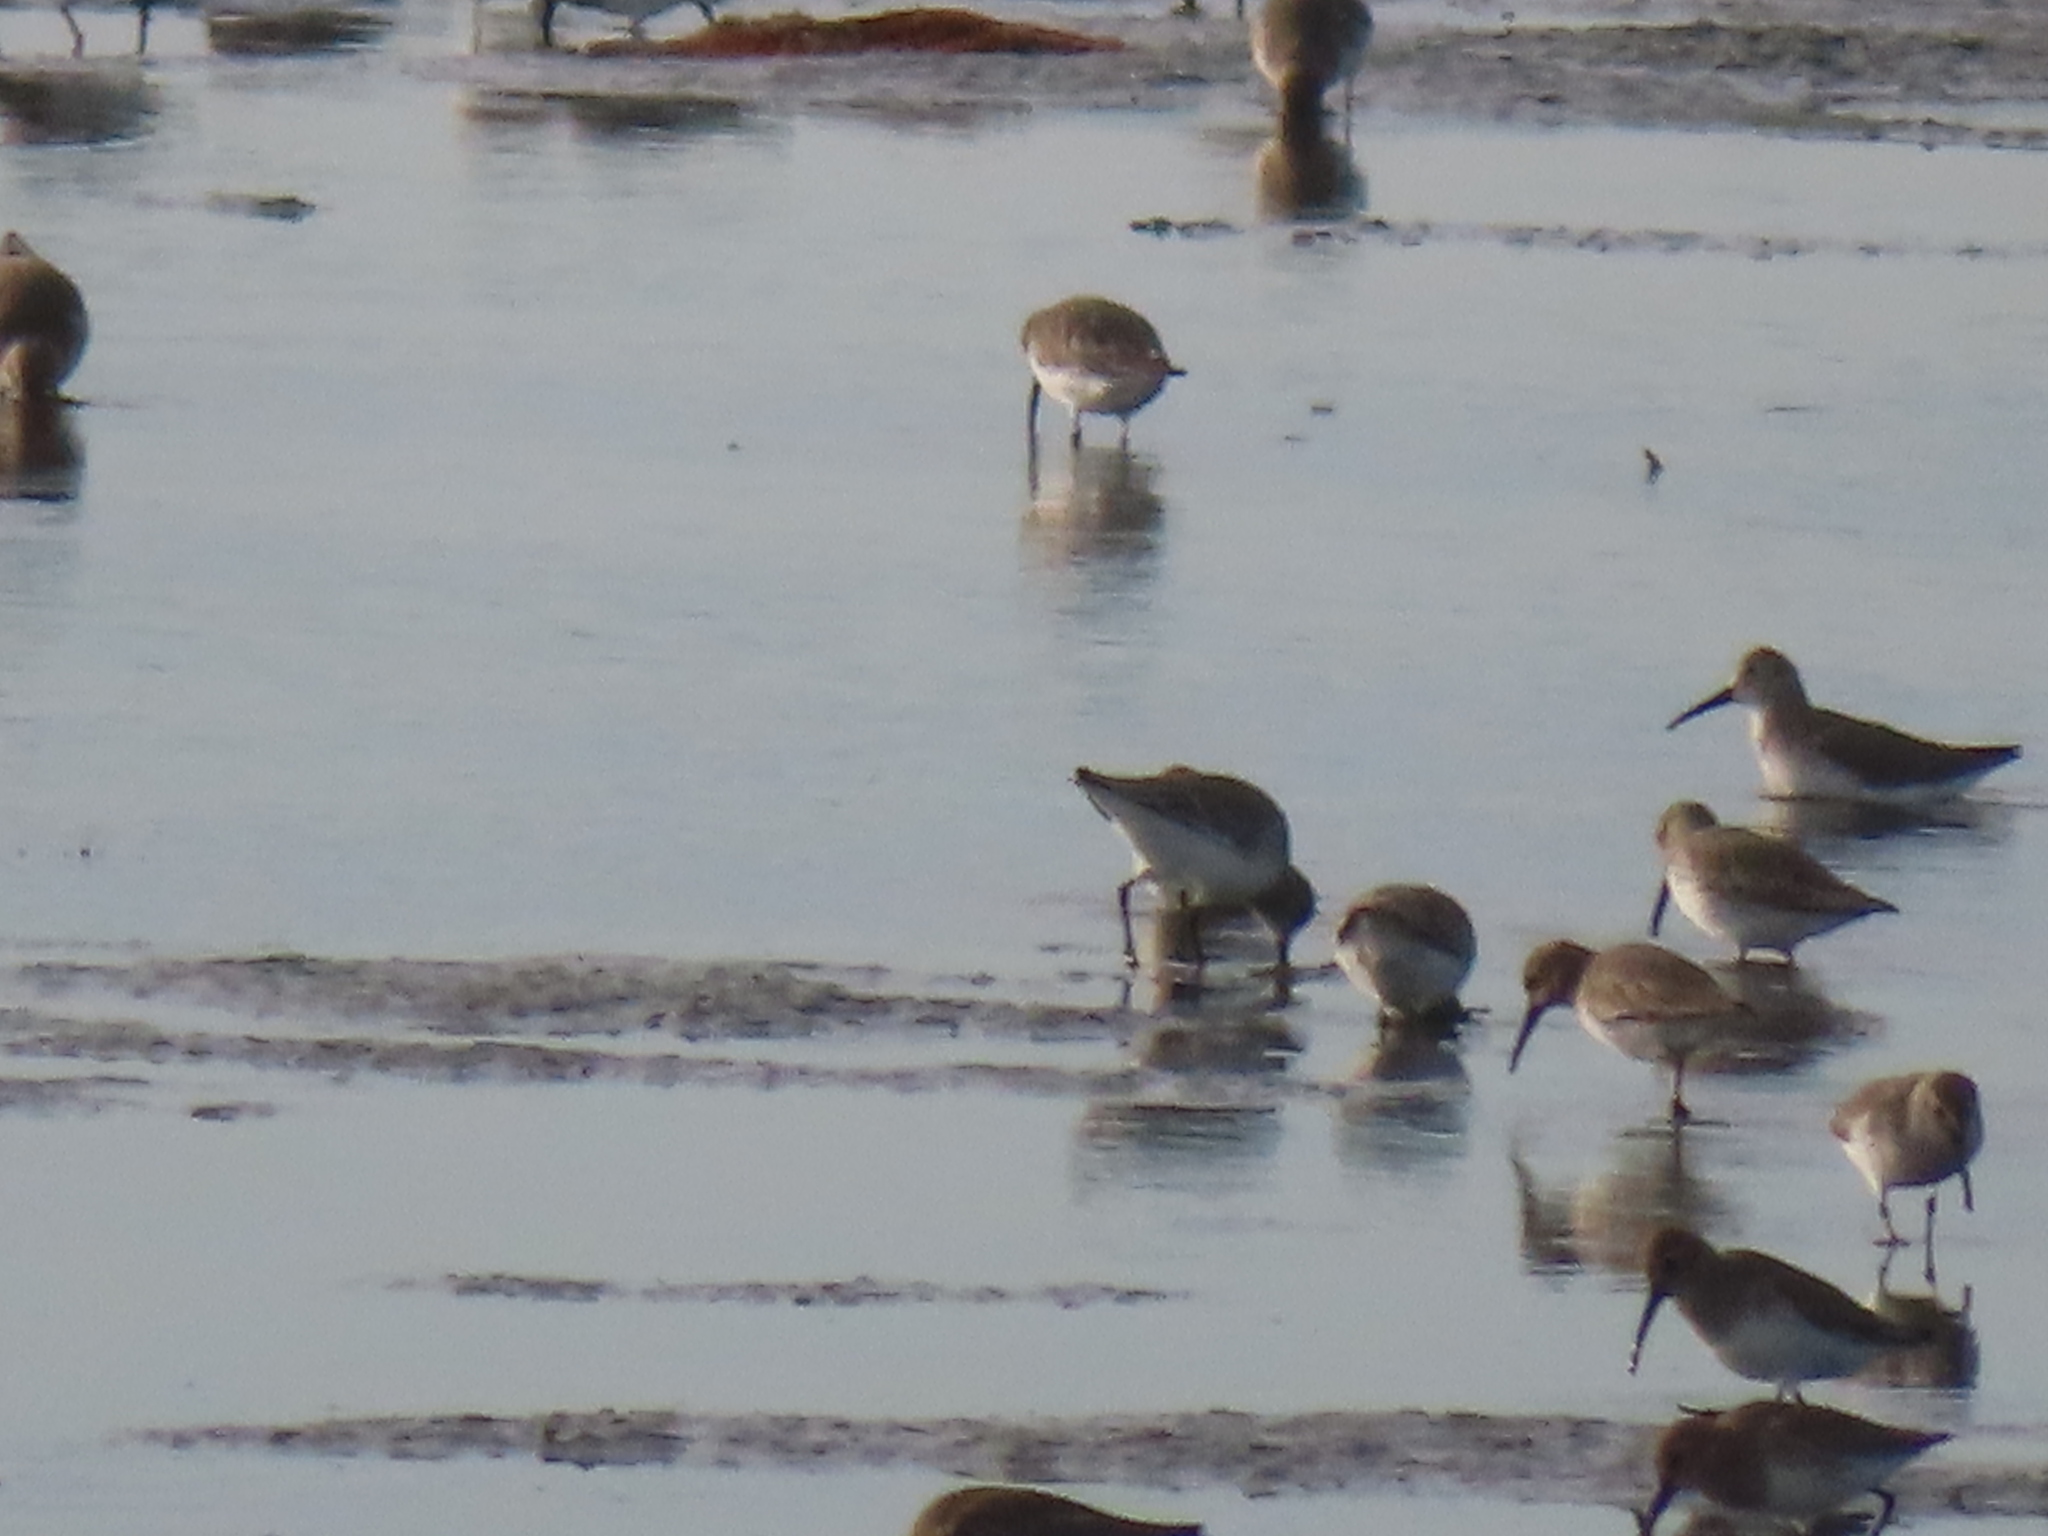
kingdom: Animalia
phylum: Chordata
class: Aves
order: Charadriiformes
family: Scolopacidae
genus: Calidris
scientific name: Calidris alpina
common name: Dunlin
